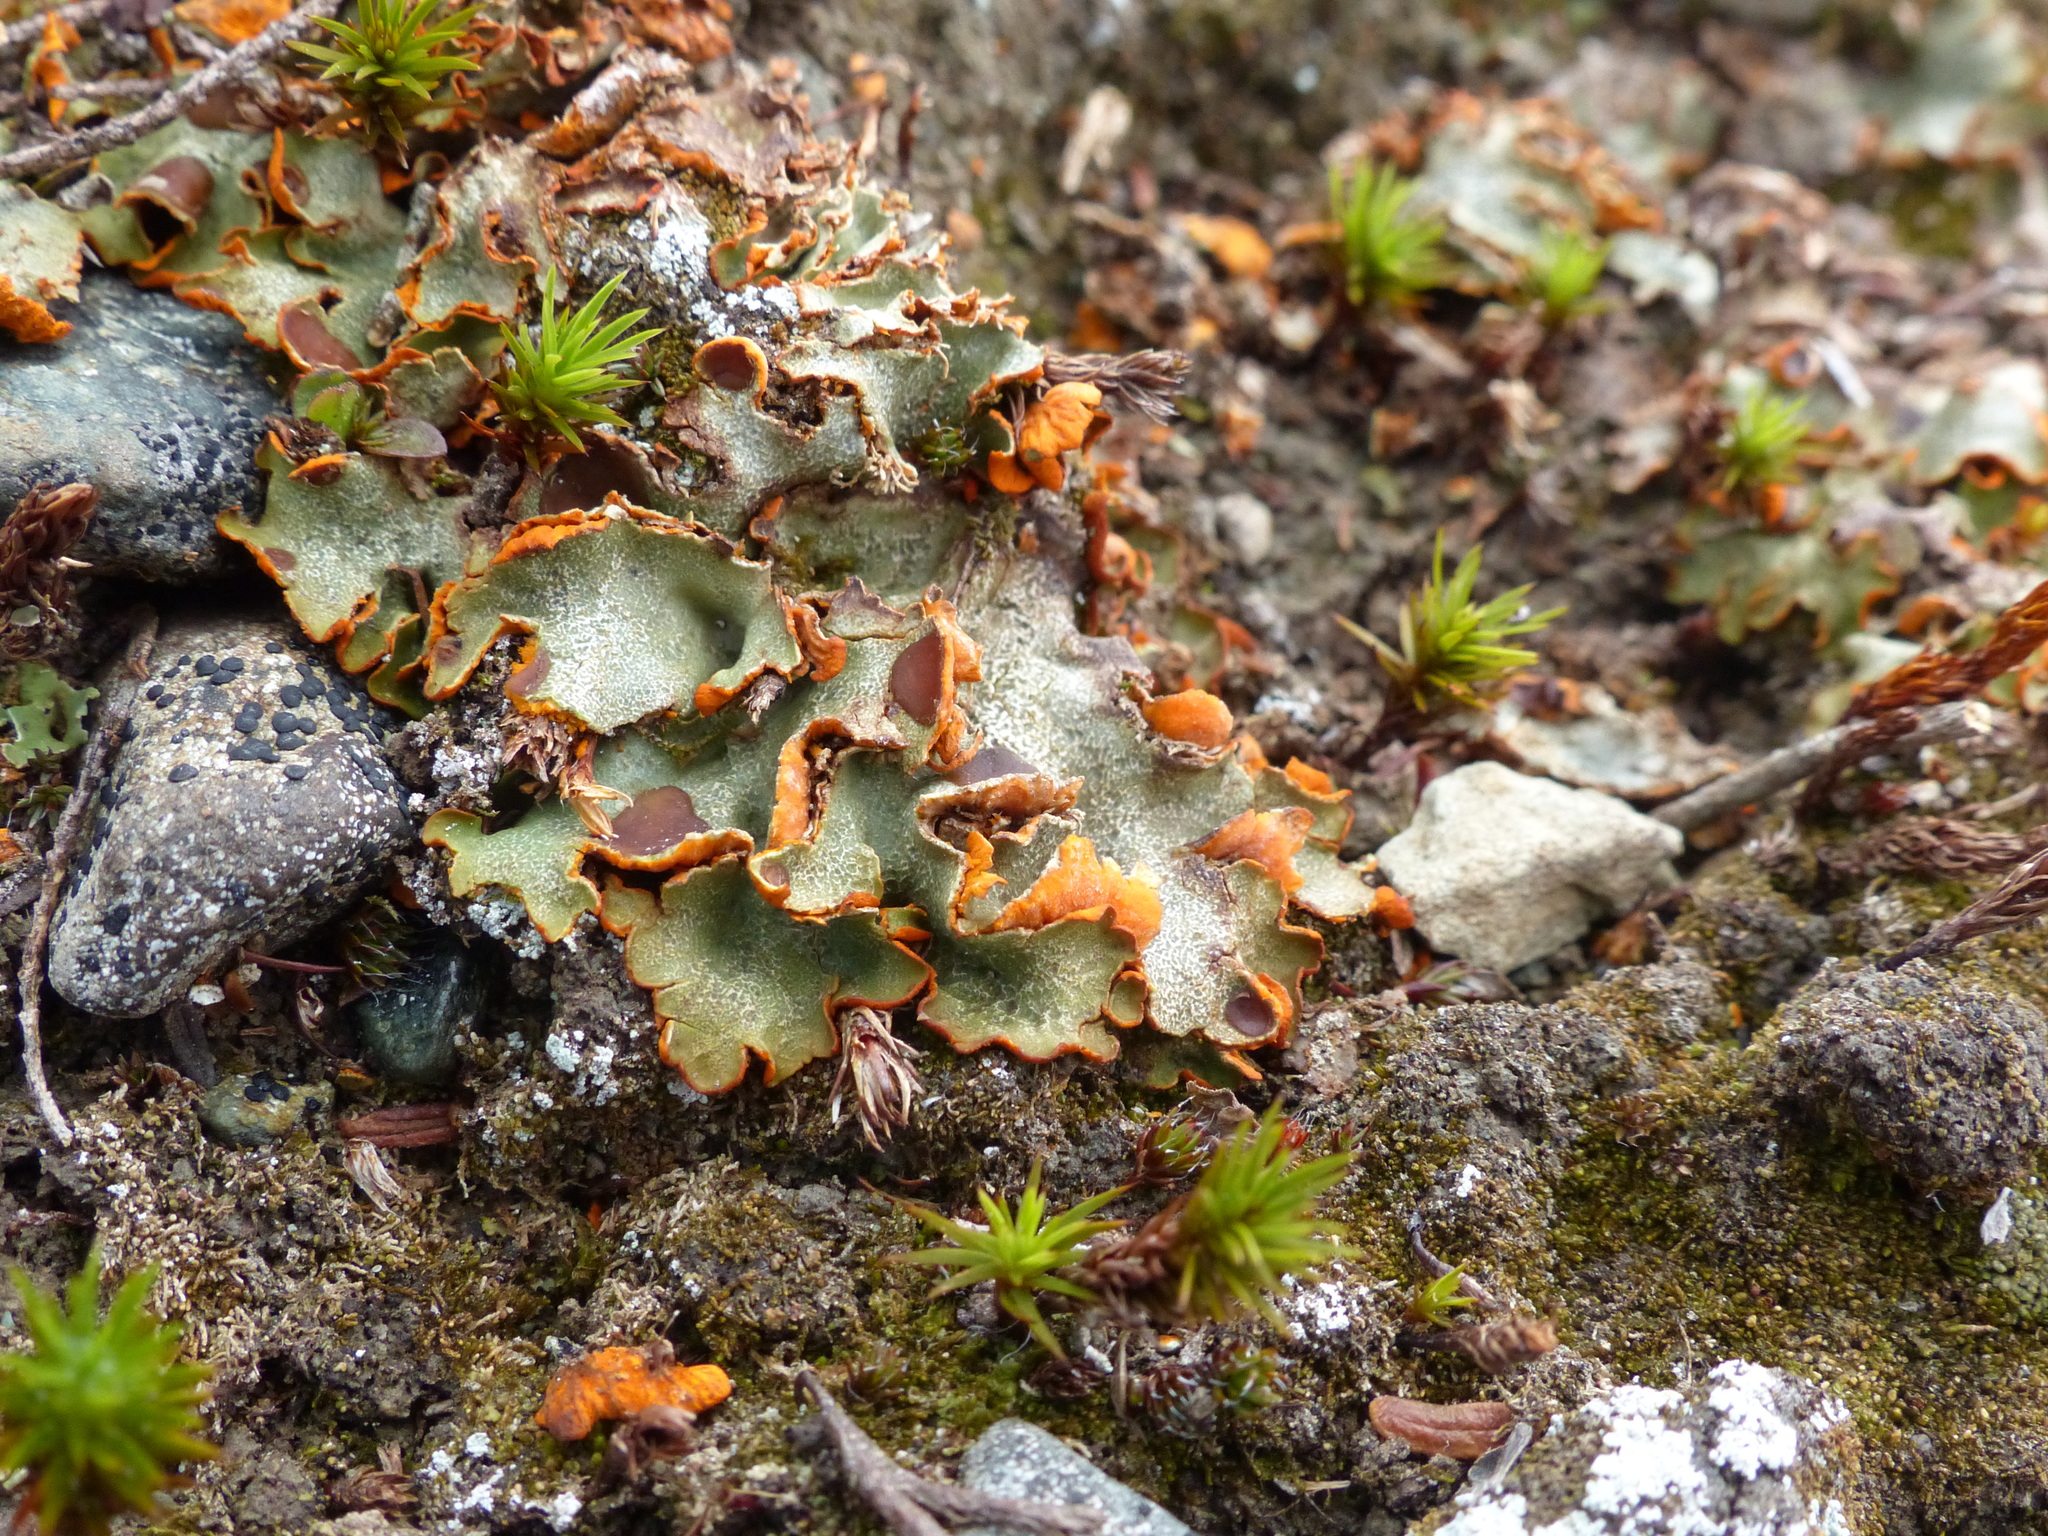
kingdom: Fungi
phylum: Ascomycota
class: Lecanoromycetes
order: Peltigerales
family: Peltigeraceae
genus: Solorina
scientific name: Solorina crocea
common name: Mountain saffron
